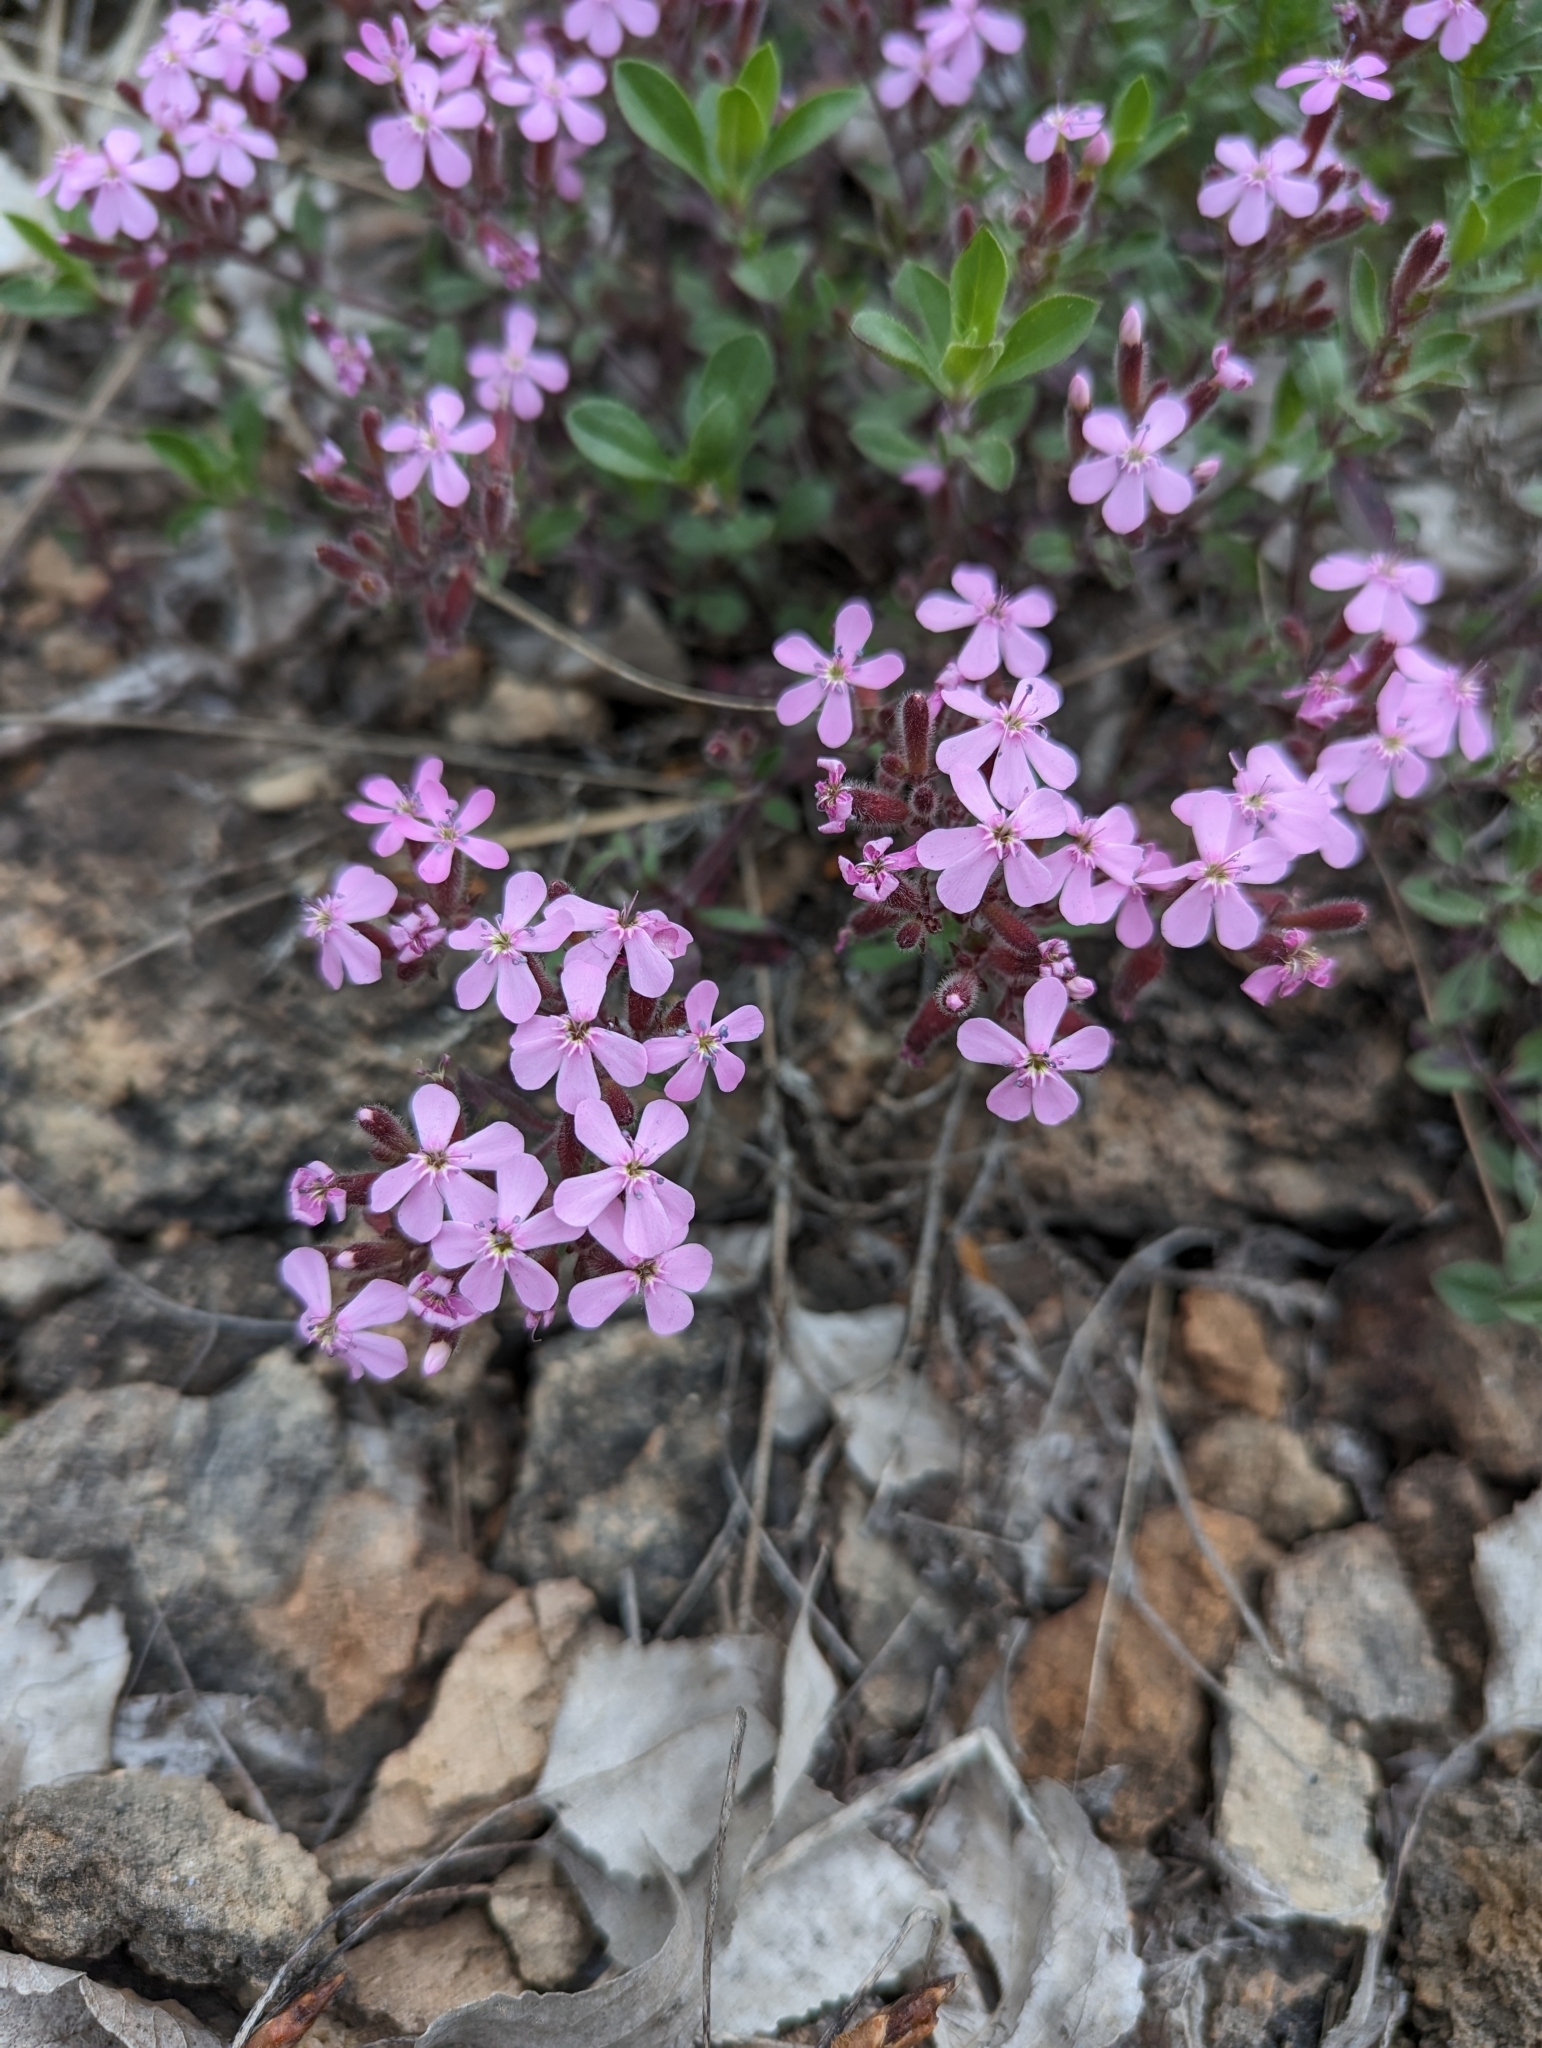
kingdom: Plantae
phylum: Tracheophyta
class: Magnoliopsida
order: Caryophyllales
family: Caryophyllaceae
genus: Saponaria
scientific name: Saponaria ocymoides
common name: Rock soapwort
